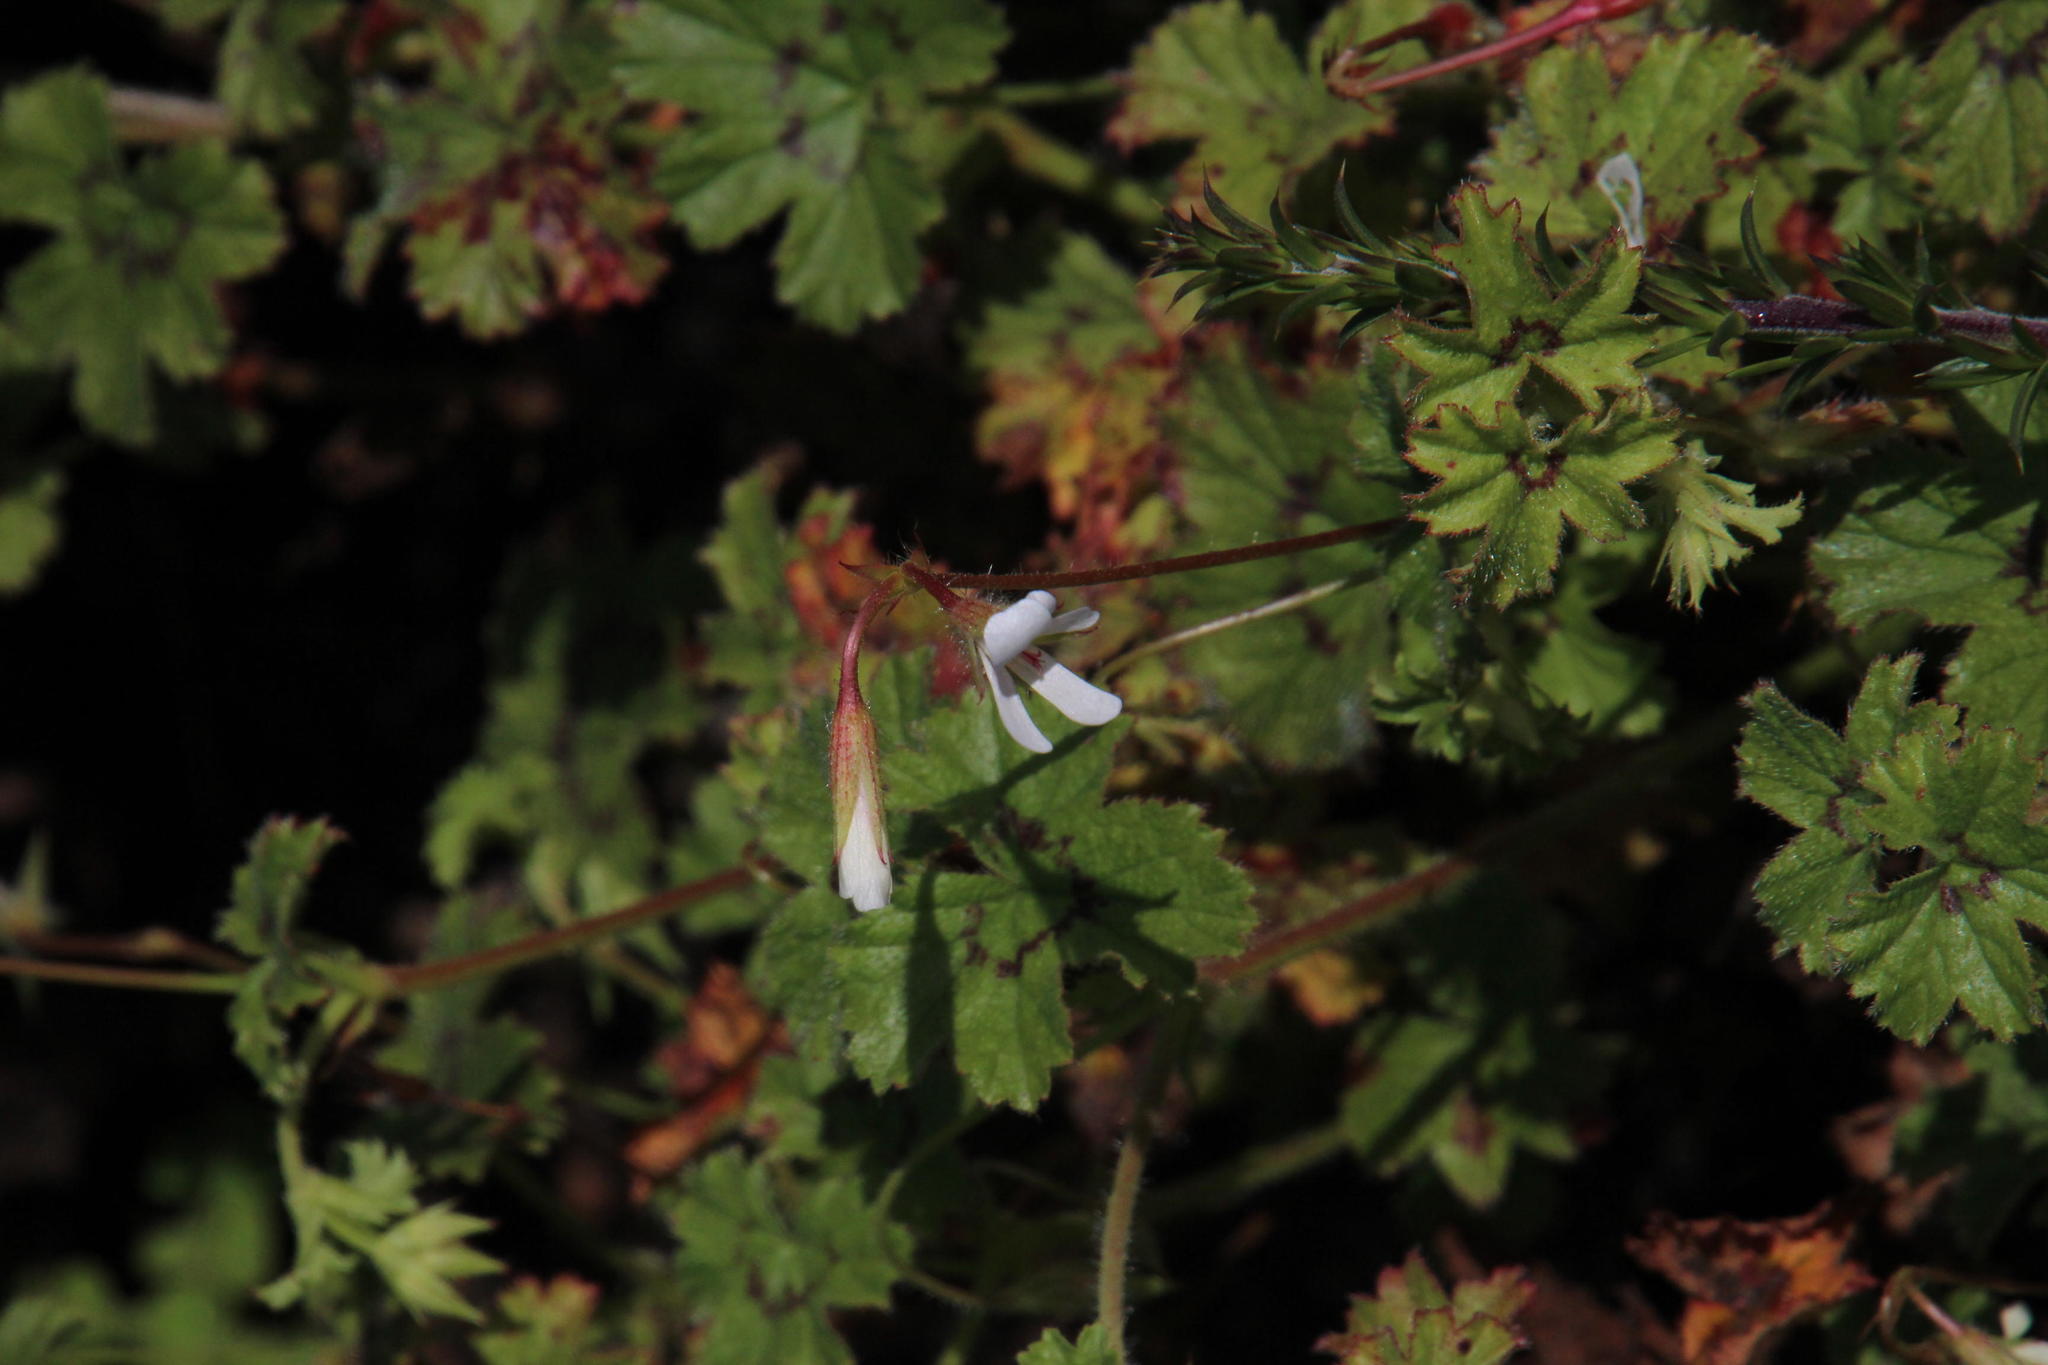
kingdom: Plantae
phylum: Tracheophyta
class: Magnoliopsida
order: Geraniales
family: Geraniaceae
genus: Pelargonium
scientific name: Pelargonium elongatum
